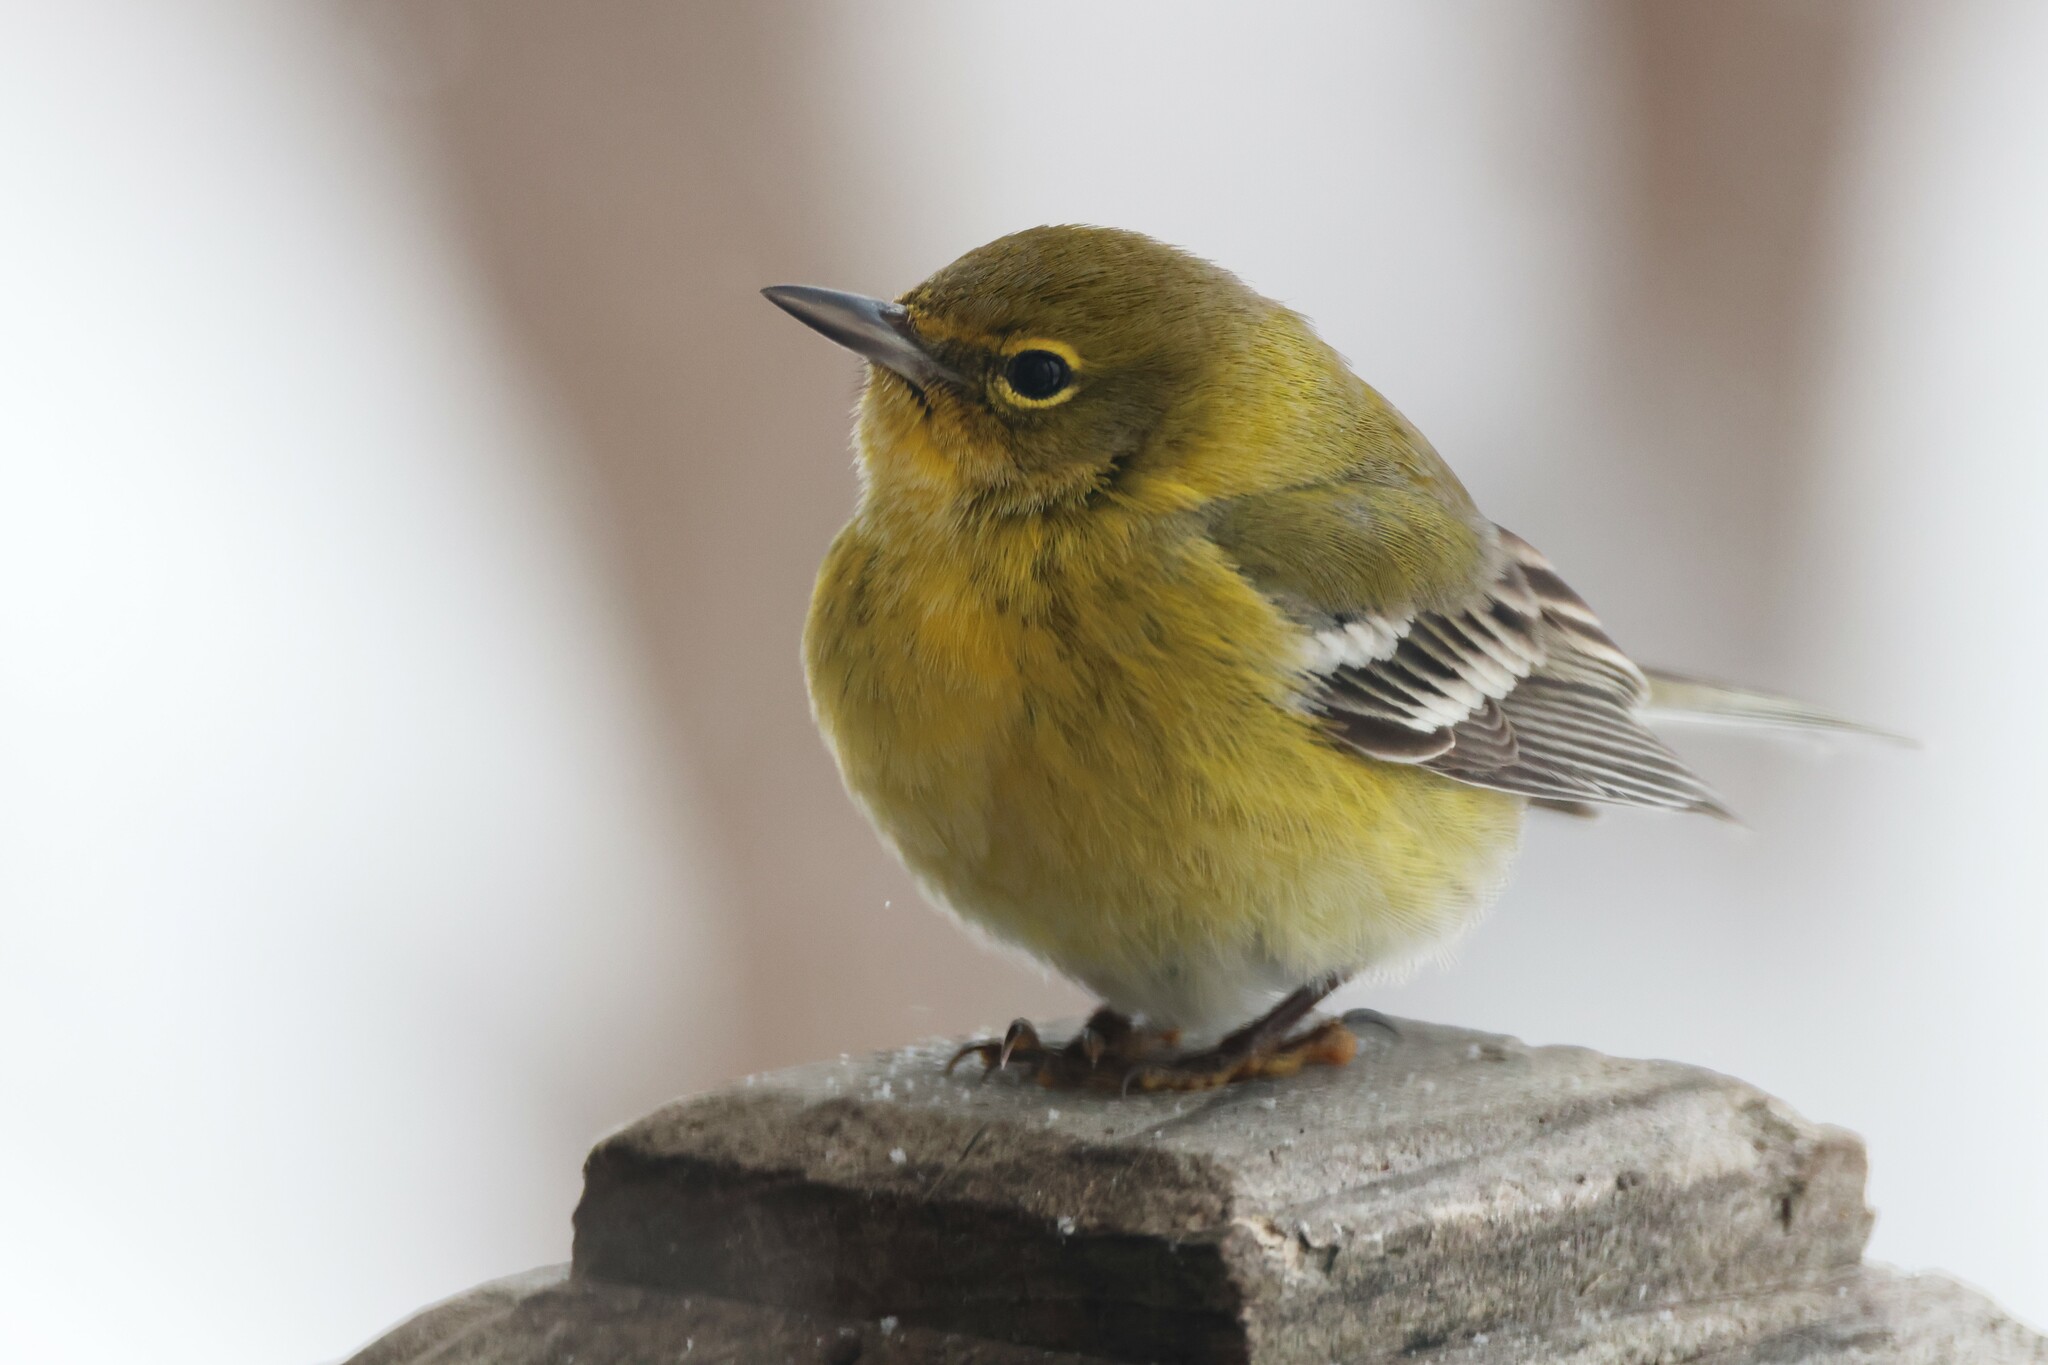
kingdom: Animalia
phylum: Chordata
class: Aves
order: Passeriformes
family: Parulidae
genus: Setophaga
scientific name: Setophaga pinus
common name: Pine warbler
